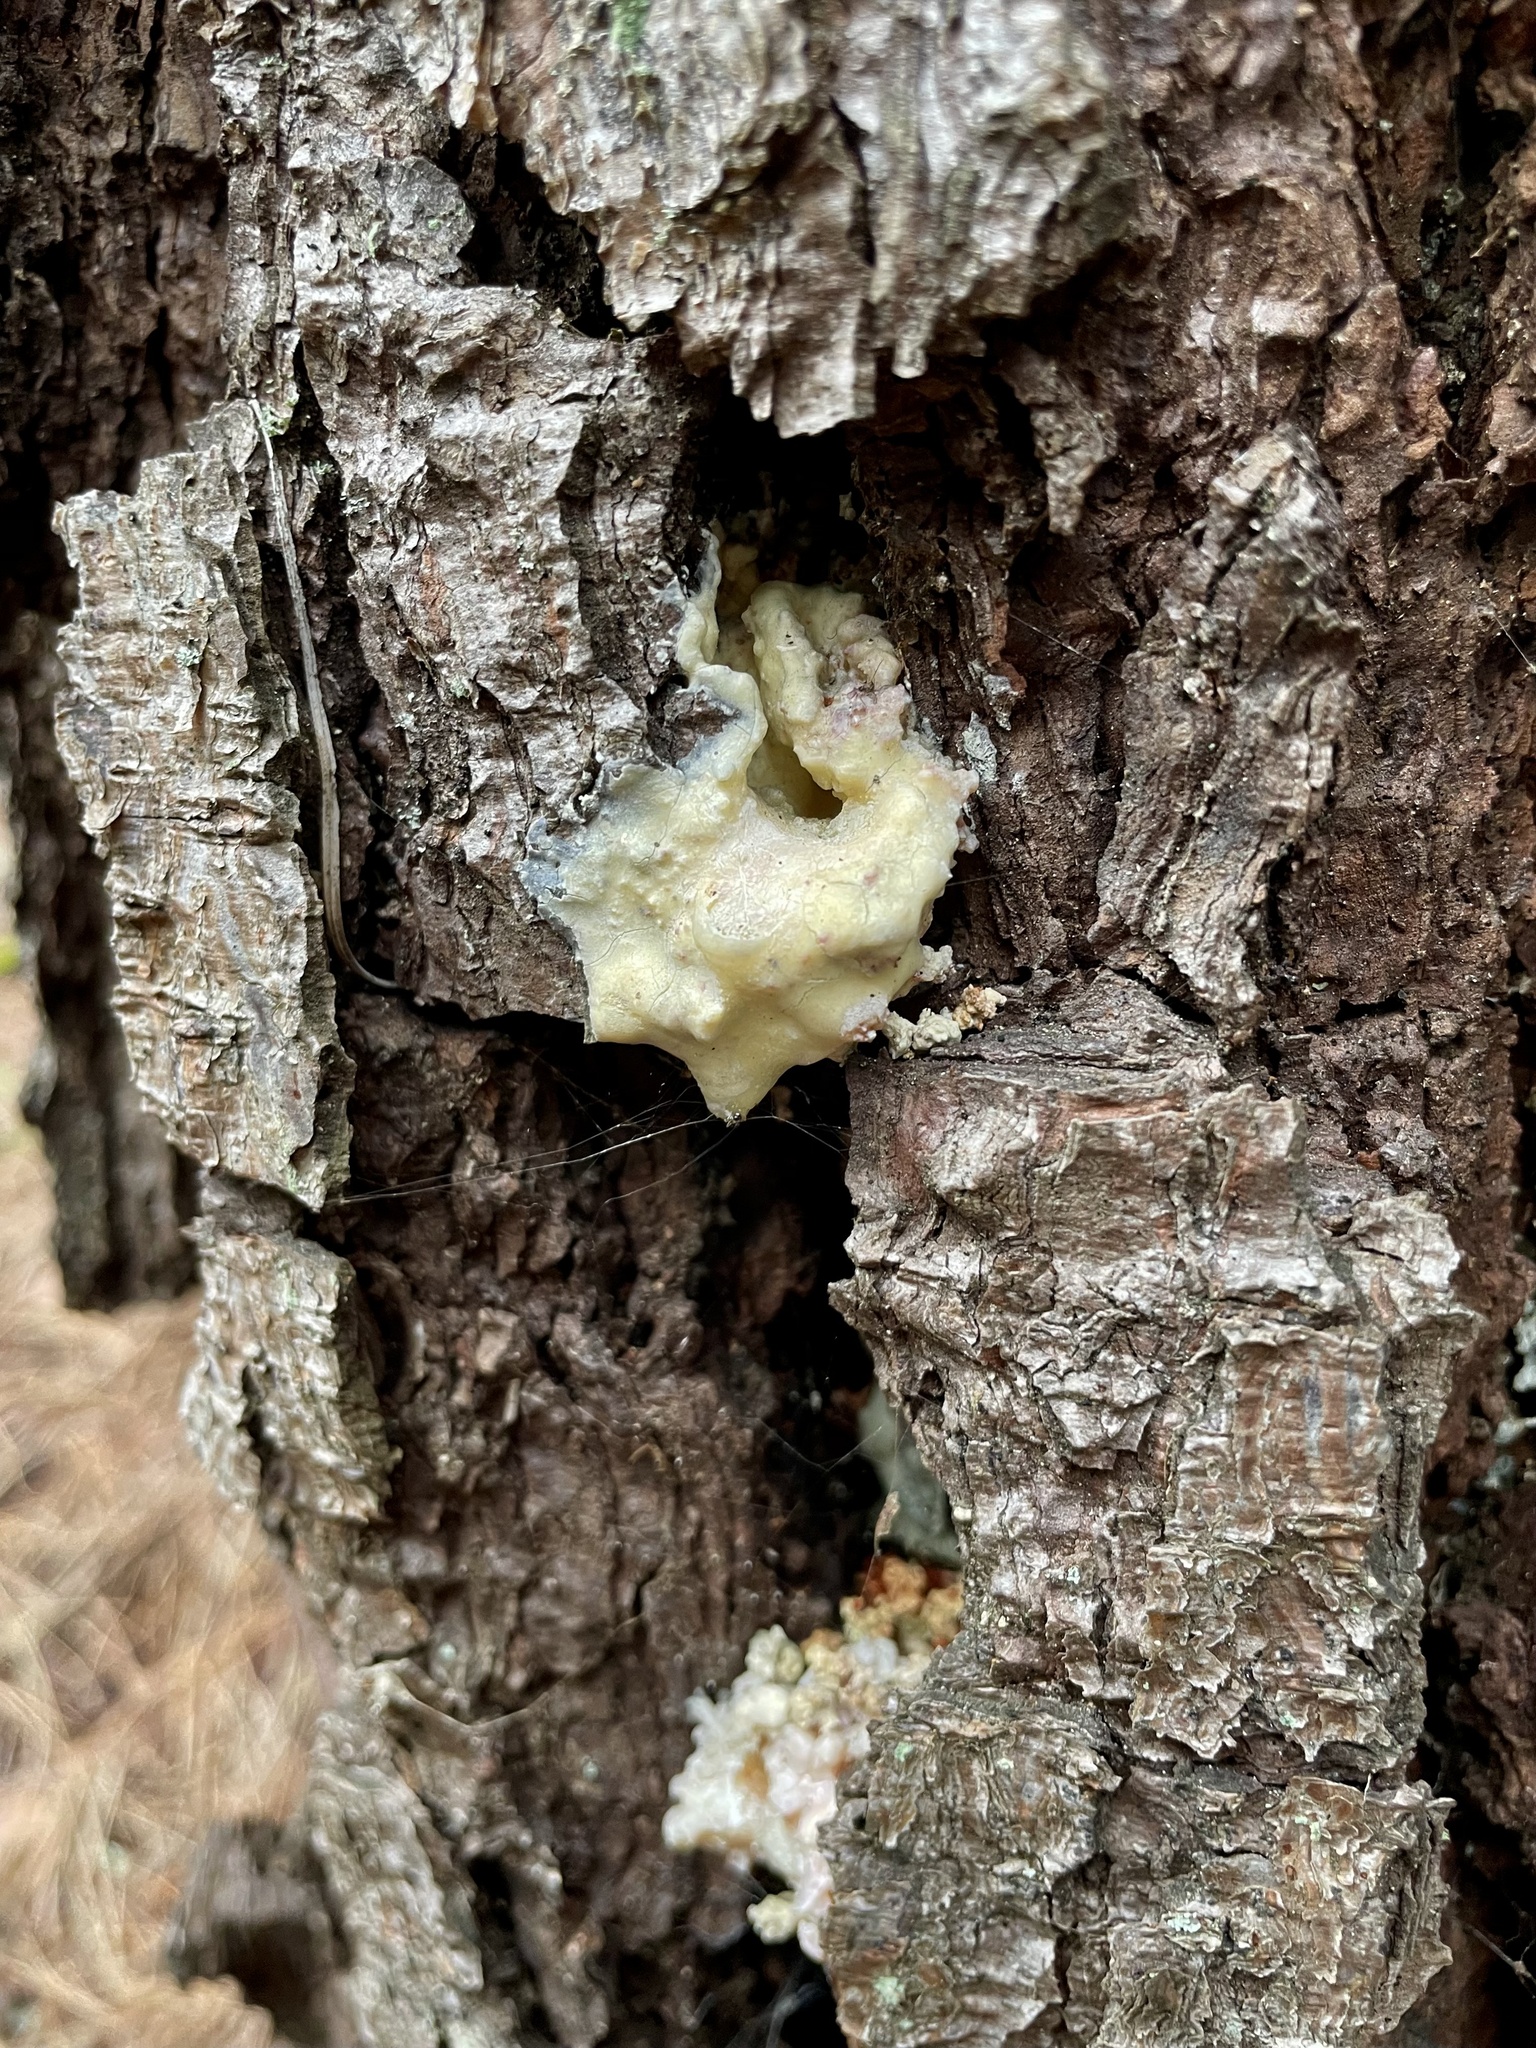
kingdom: Plantae
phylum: Tracheophyta
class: Pinopsida
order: Pinales
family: Pinaceae
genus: Pinus
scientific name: Pinus radiata
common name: Monterey pine
